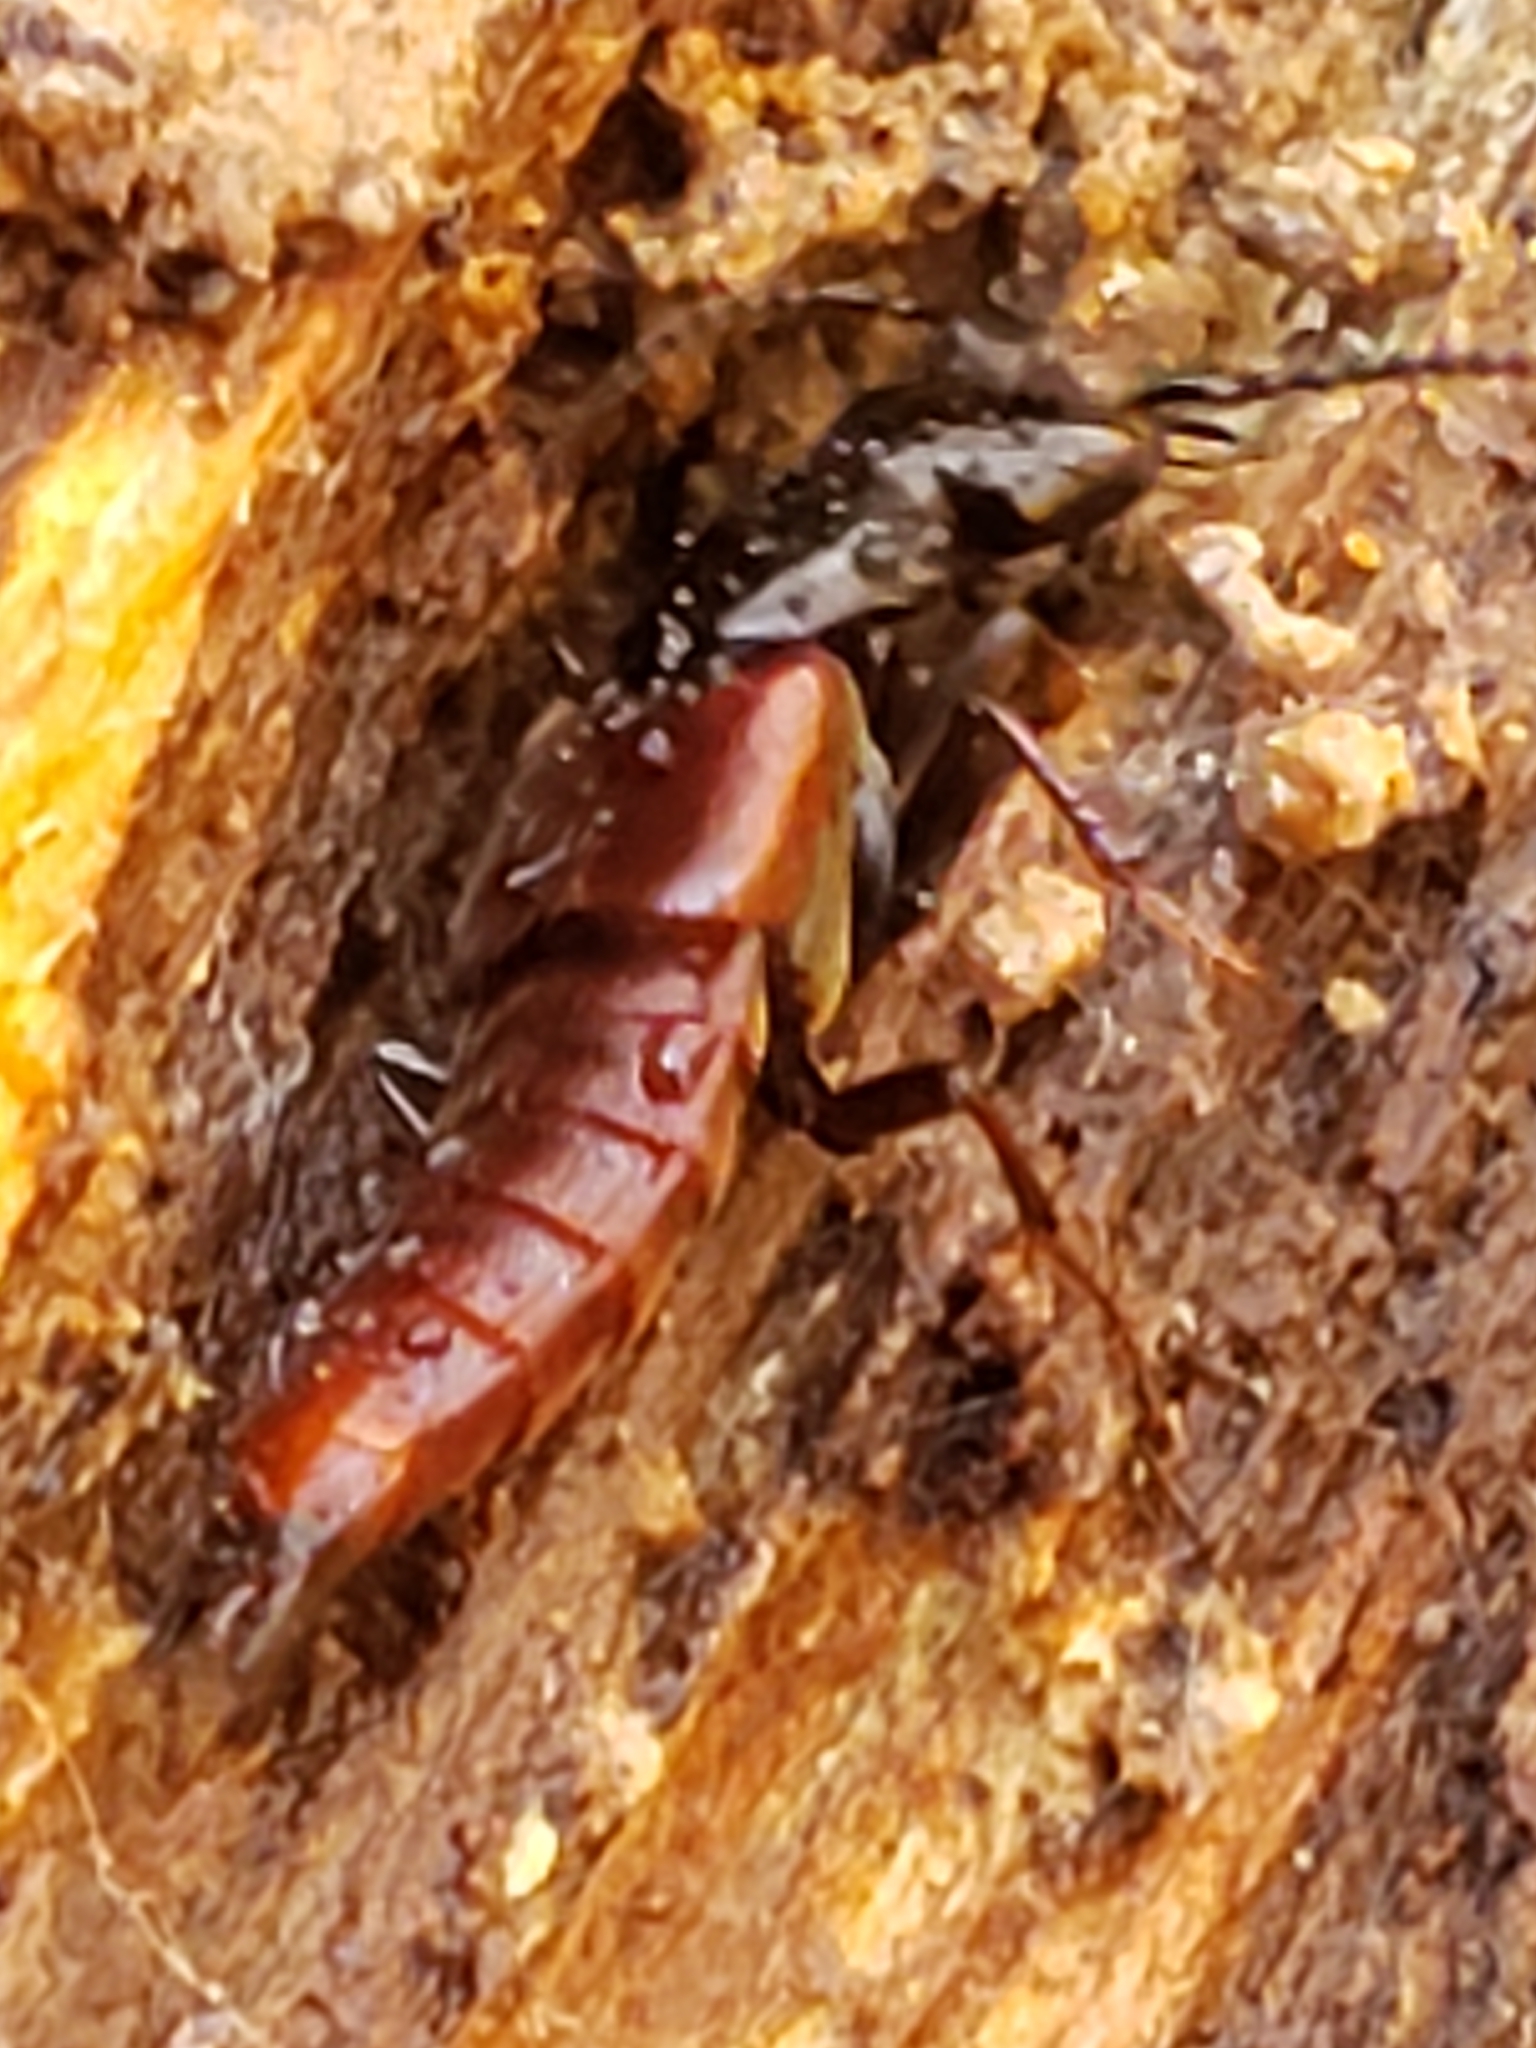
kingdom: Animalia
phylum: Arthropoda
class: Insecta
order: Coleoptera
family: Staphylinidae
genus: Hesperus
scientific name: Hesperus baltimorensis
